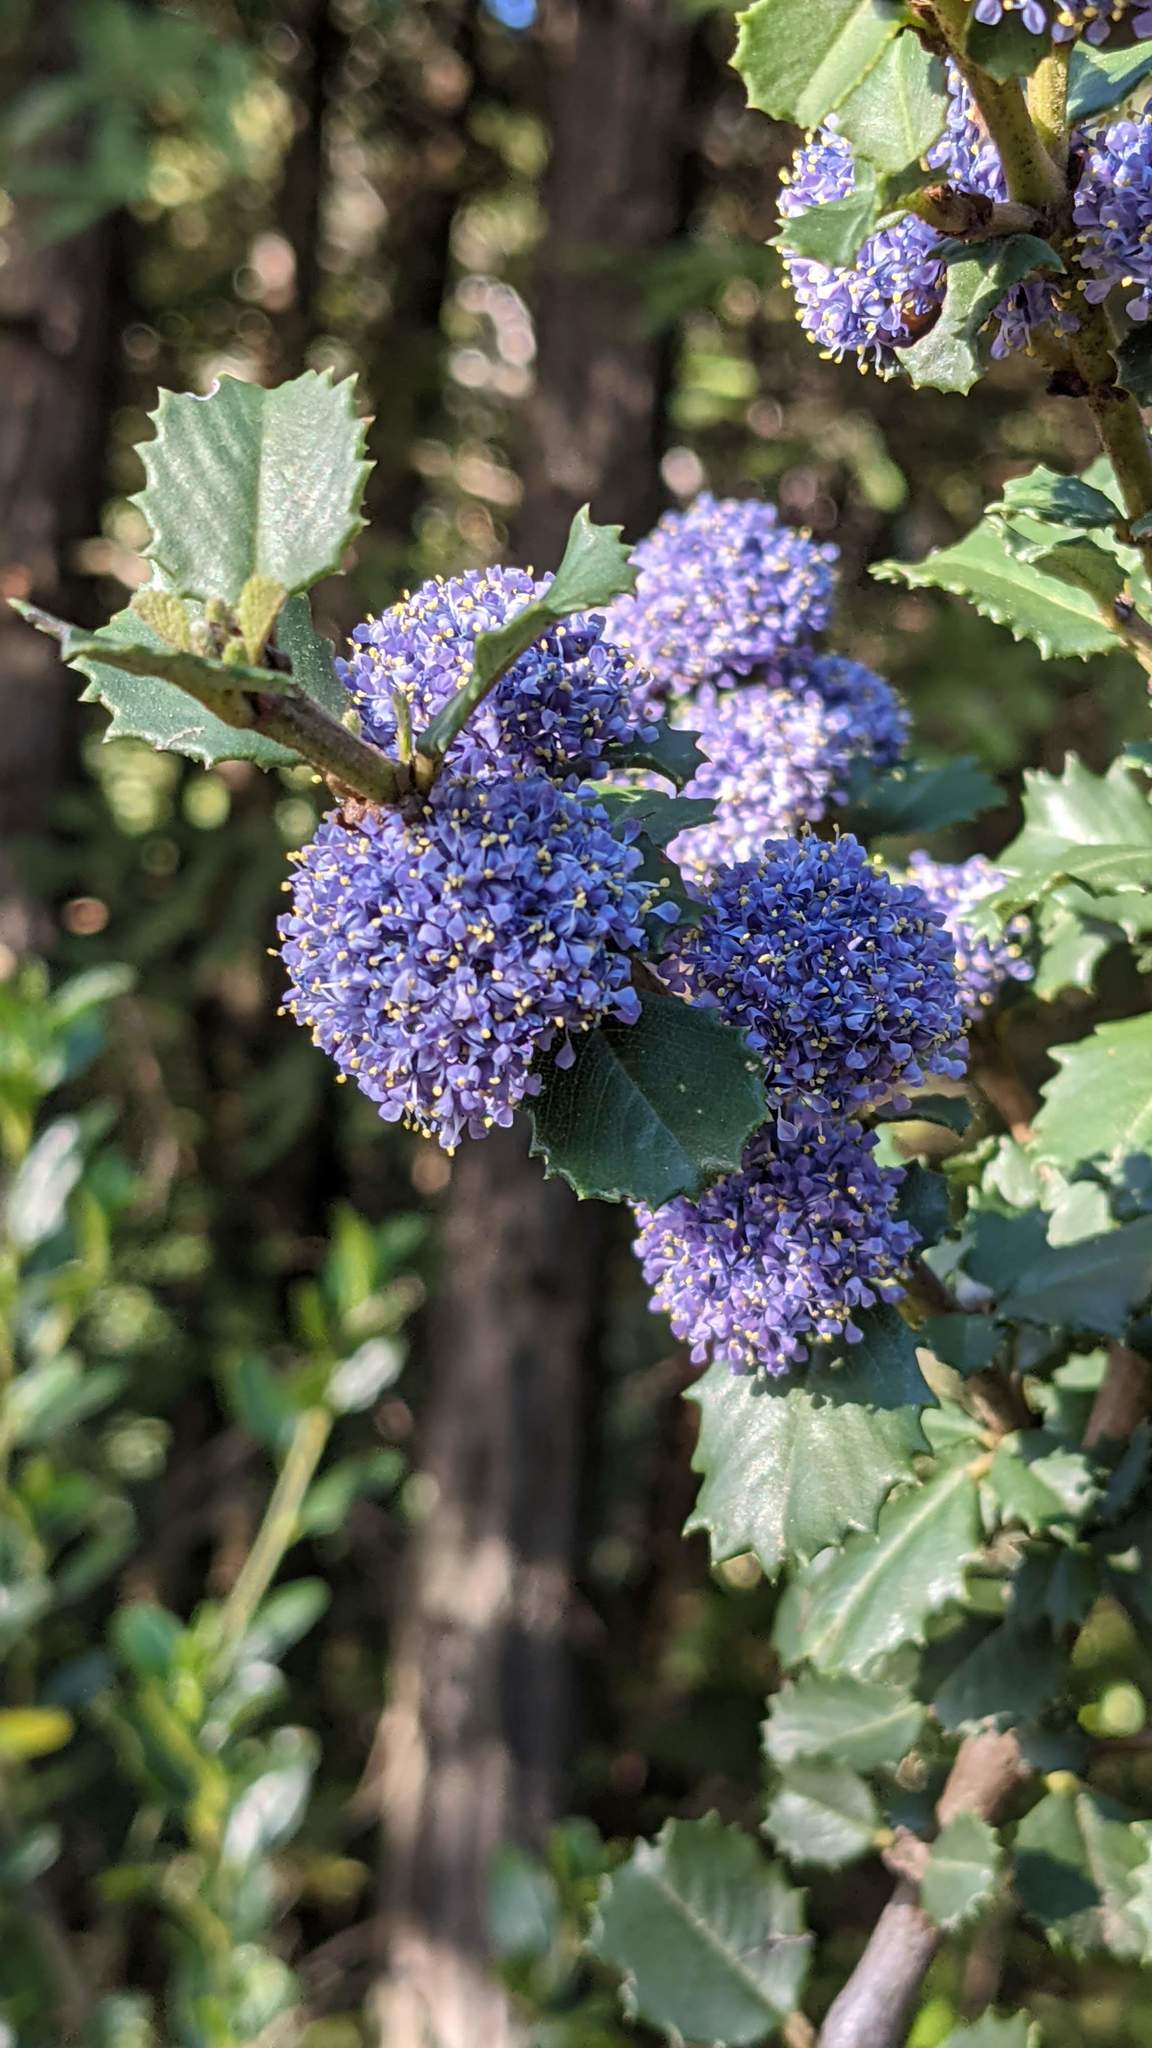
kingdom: Plantae
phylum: Tracheophyta
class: Magnoliopsida
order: Rosales
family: Rhamnaceae
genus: Ceanothus
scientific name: Ceanothus gloriosus
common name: Point reyes ceanothus
